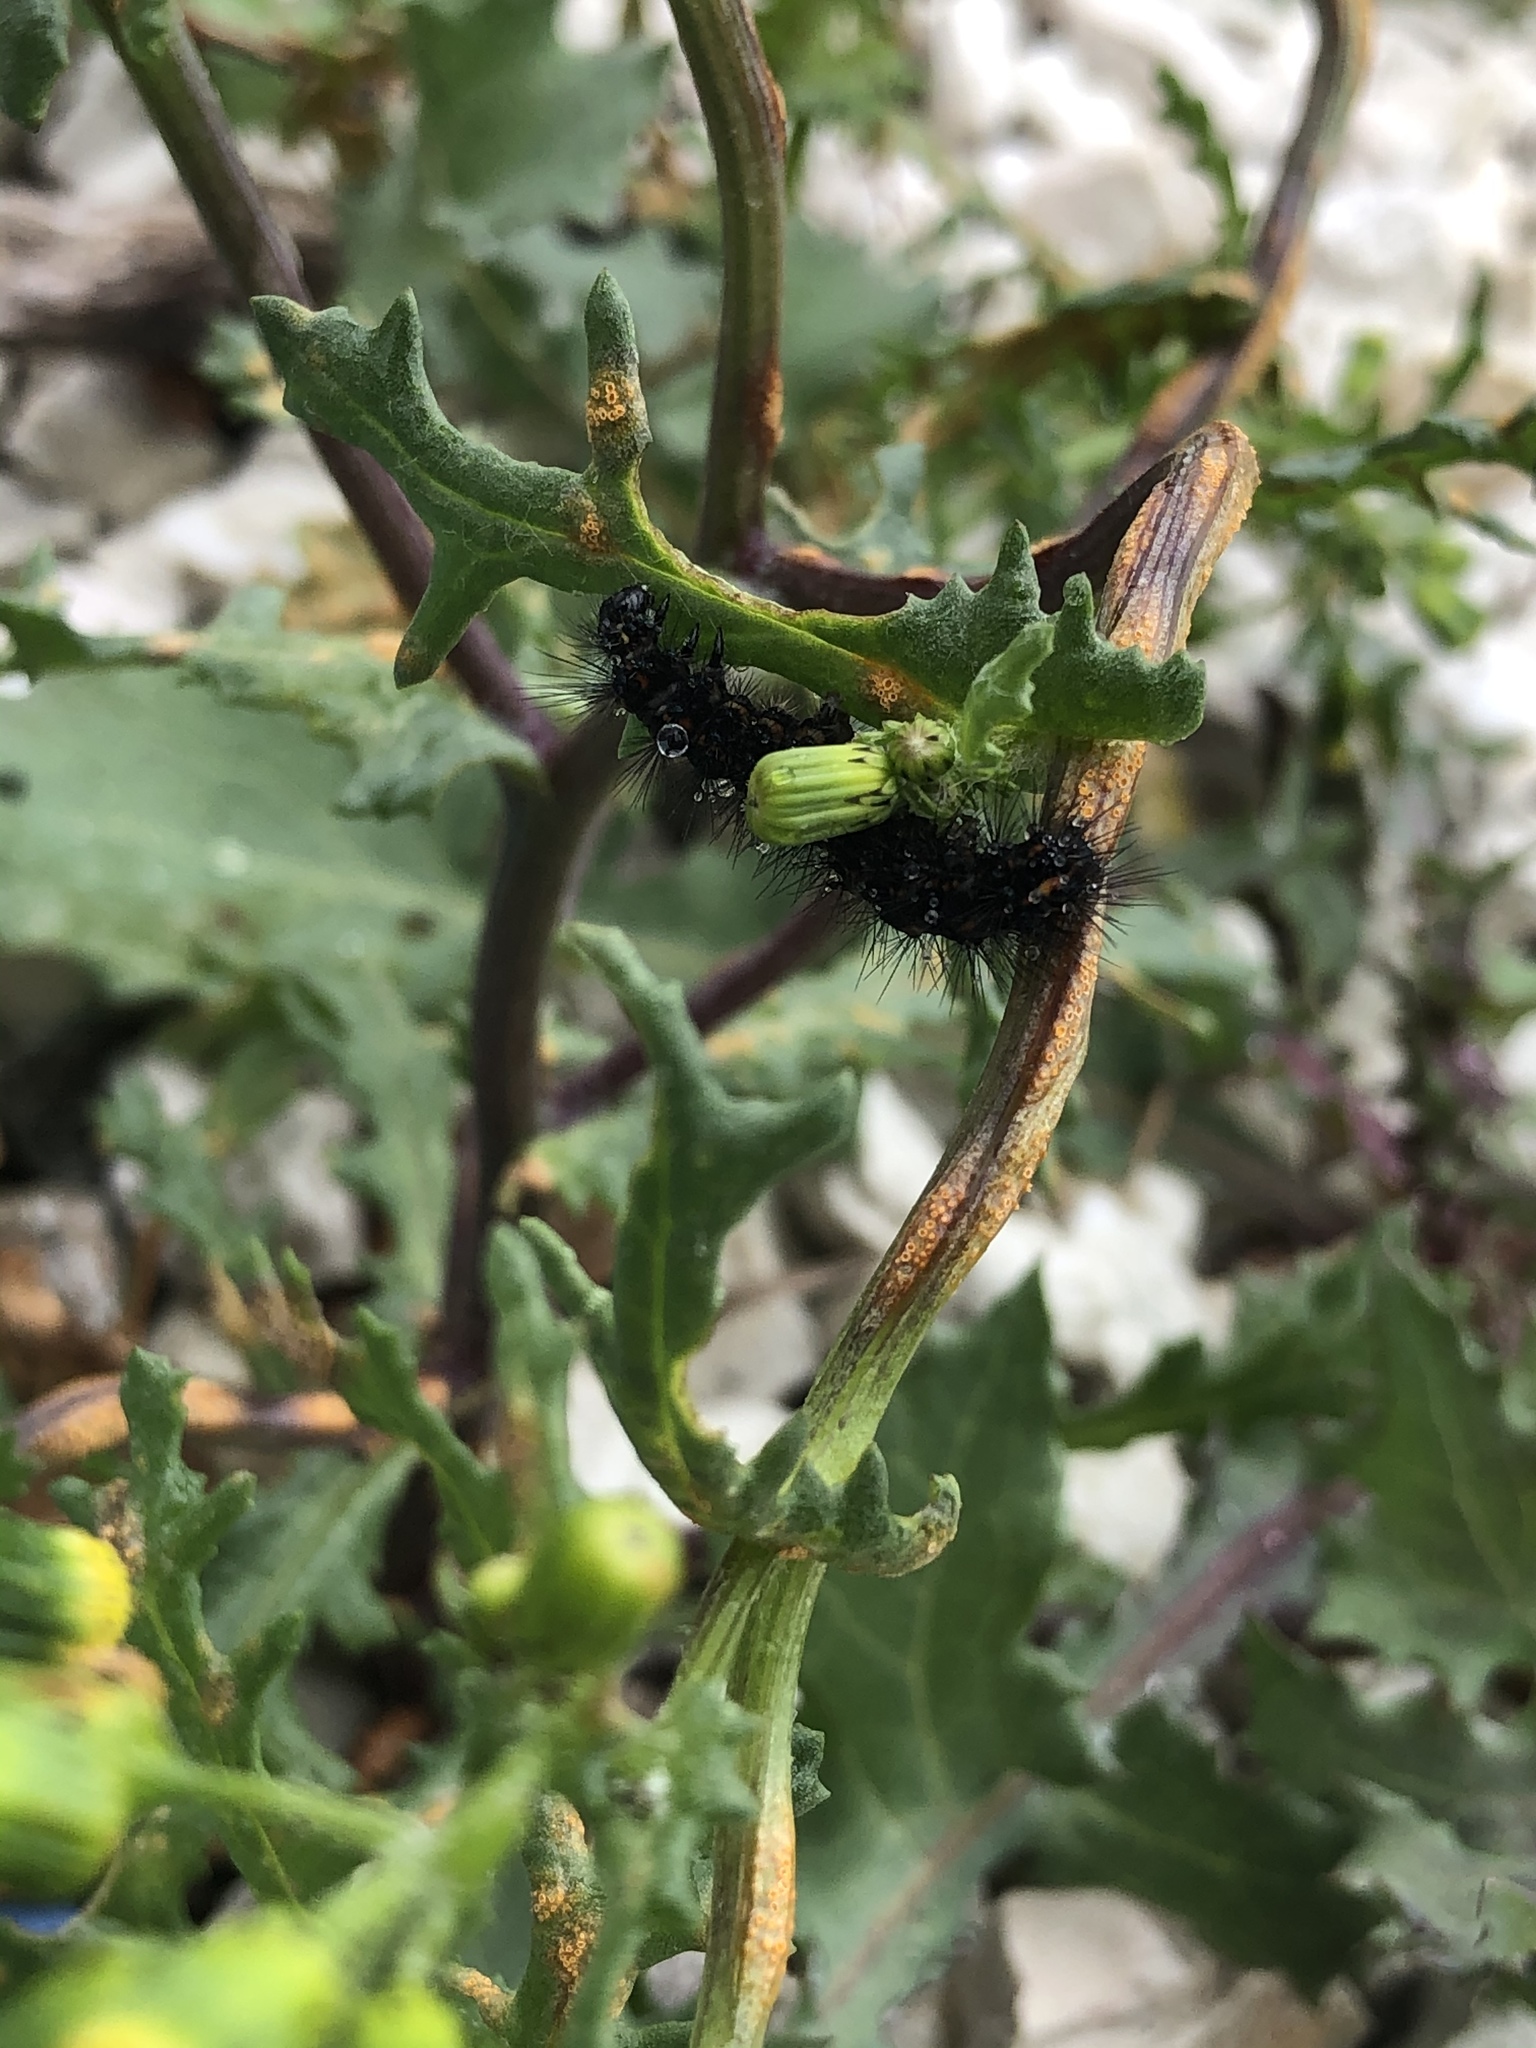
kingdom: Animalia
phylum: Arthropoda
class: Insecta
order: Lepidoptera
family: Erebidae
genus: Nyctemera
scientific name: Nyctemera annulatum
